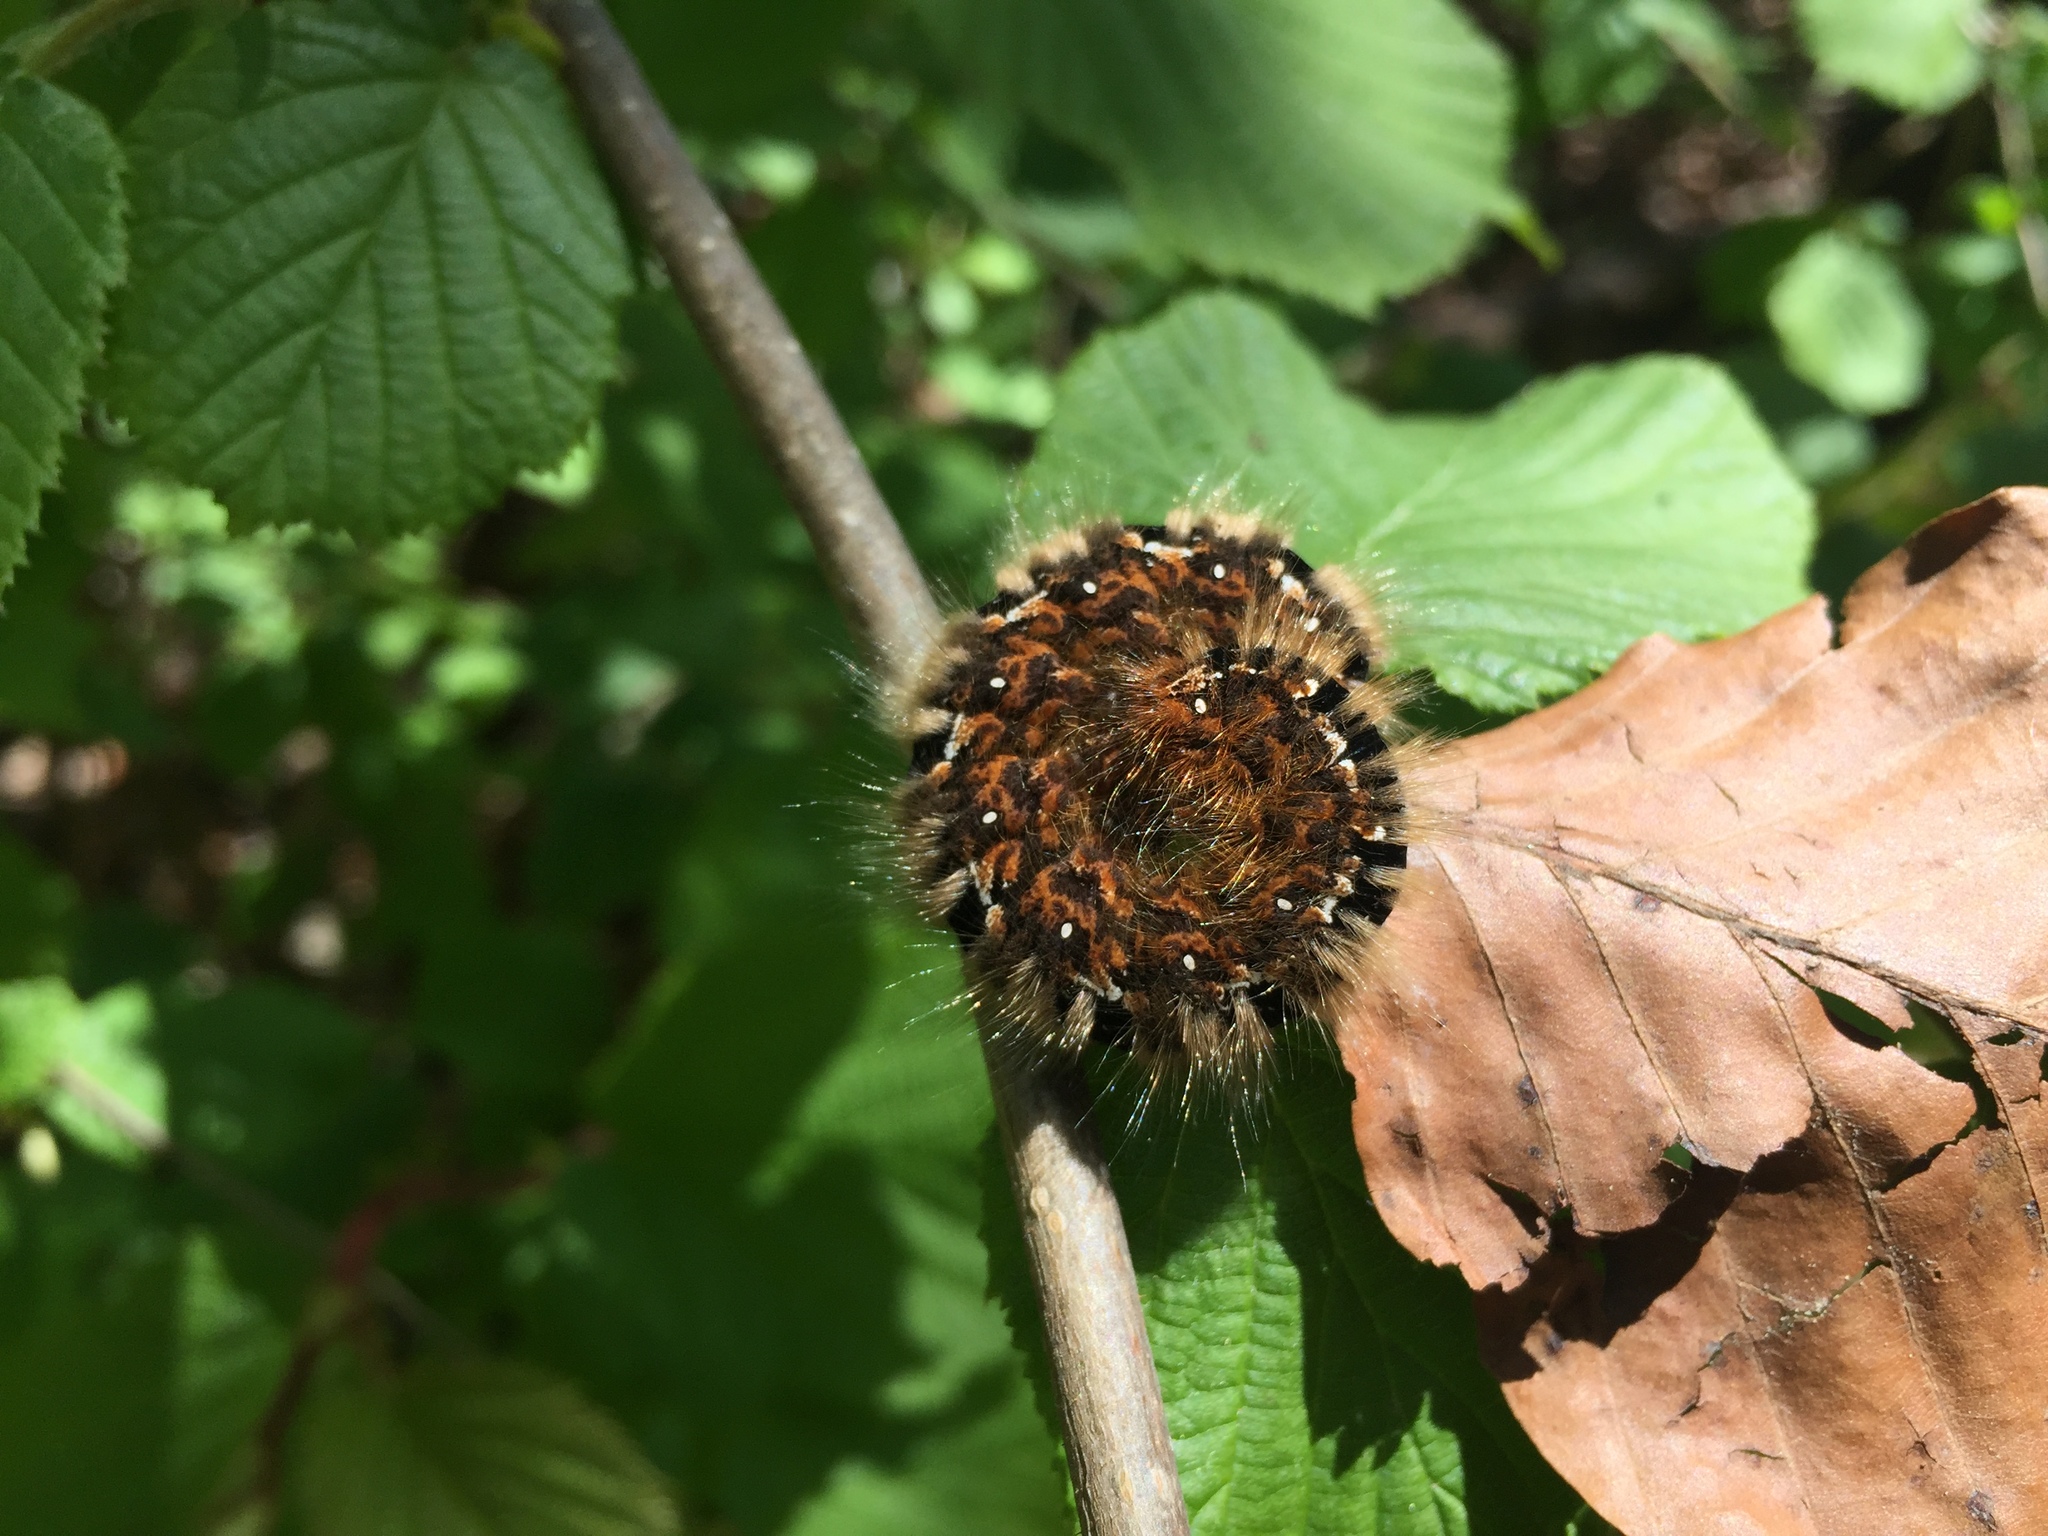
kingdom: Animalia
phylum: Arthropoda
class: Insecta
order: Lepidoptera
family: Lasiocampidae
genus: Lasiocampa
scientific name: Lasiocampa quercus
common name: Oak eggar
